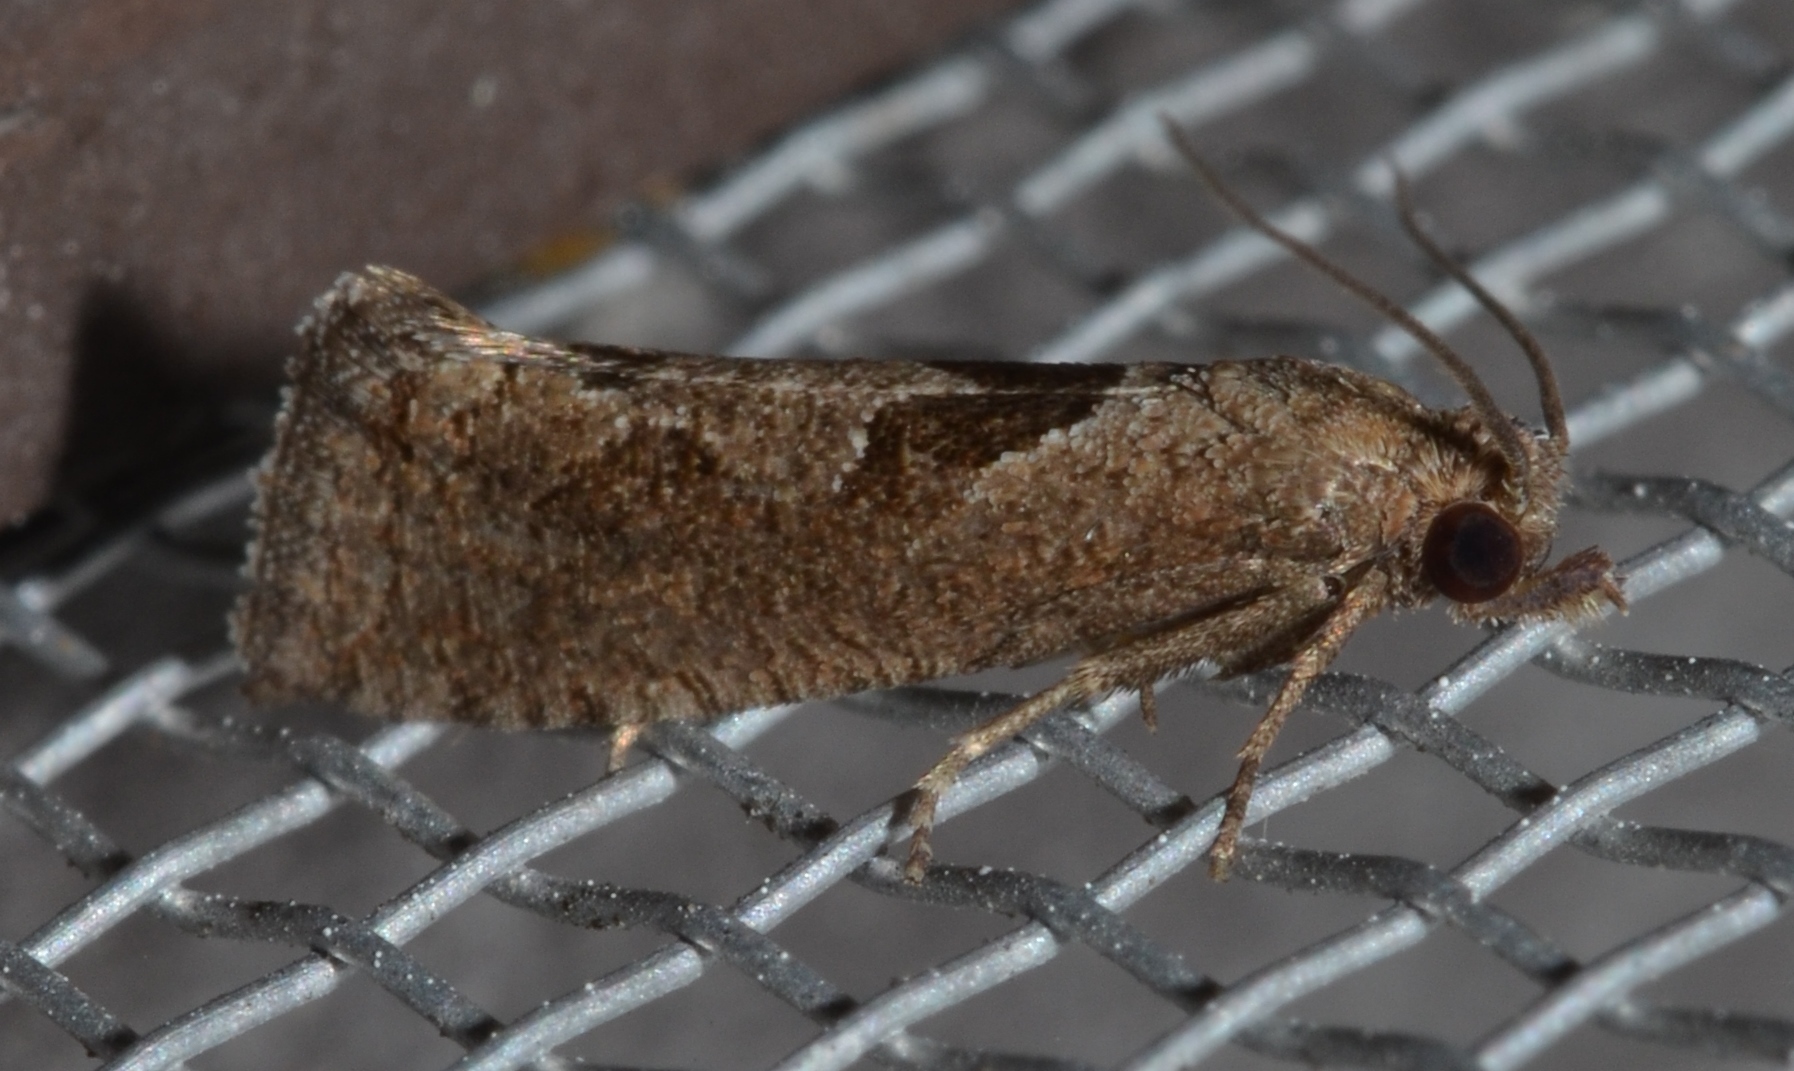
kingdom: Animalia
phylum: Arthropoda
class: Insecta
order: Lepidoptera
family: Tortricidae
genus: Pelochrista
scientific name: Pelochrista similiana
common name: Similar eucosma
